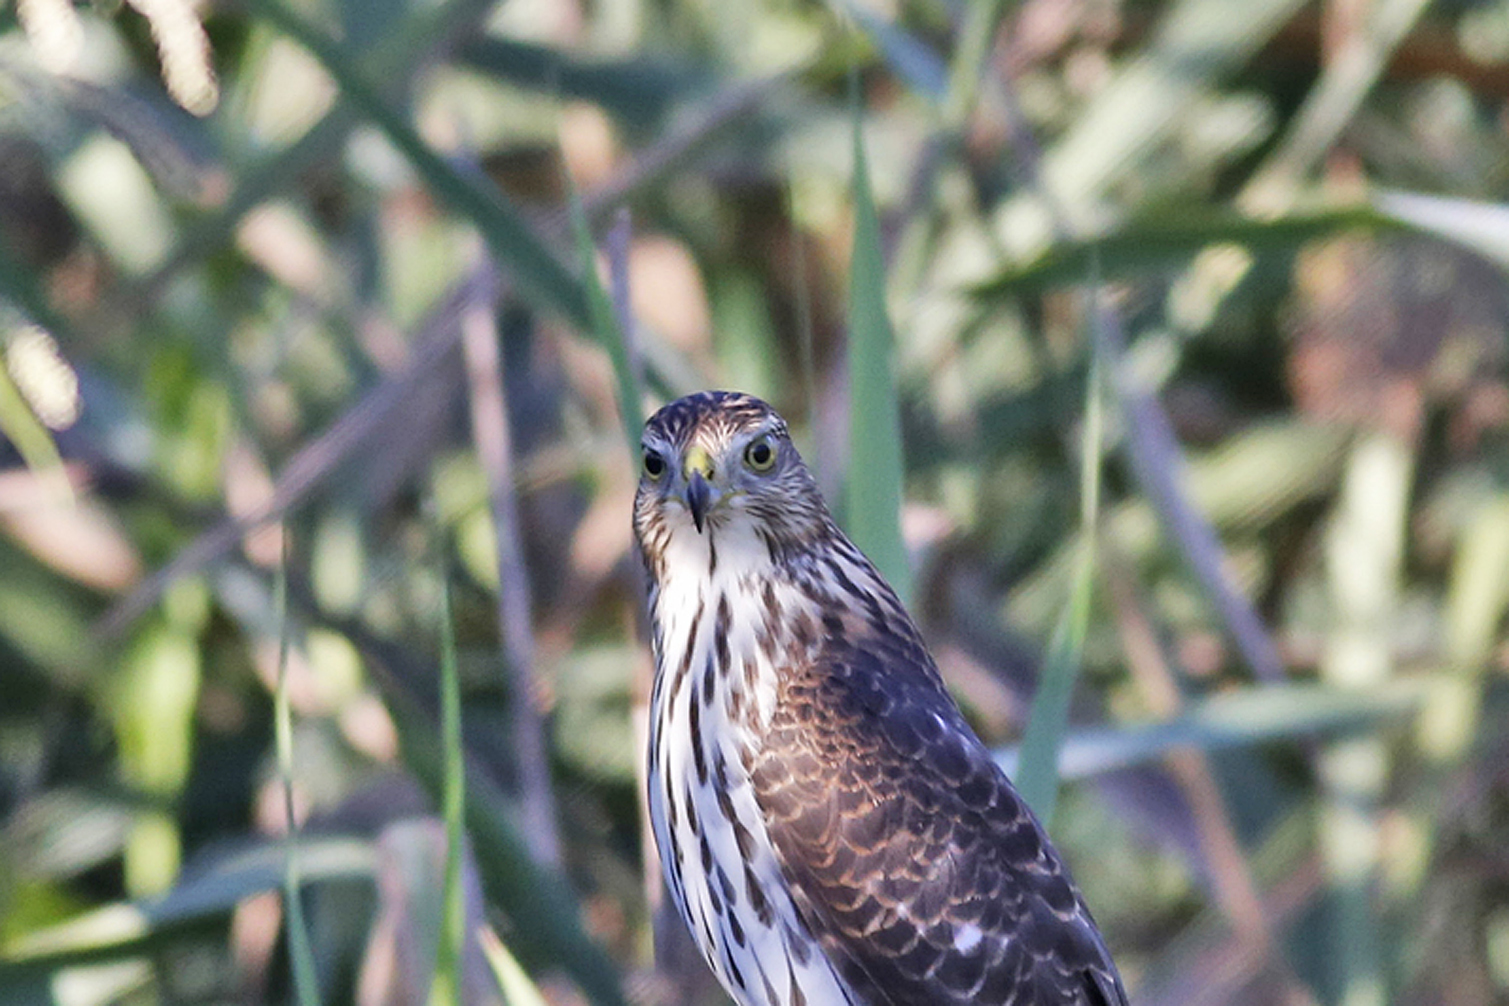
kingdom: Animalia
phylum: Chordata
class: Aves
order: Accipitriformes
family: Accipitridae
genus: Accipiter
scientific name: Accipiter cooperii
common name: Cooper's hawk
